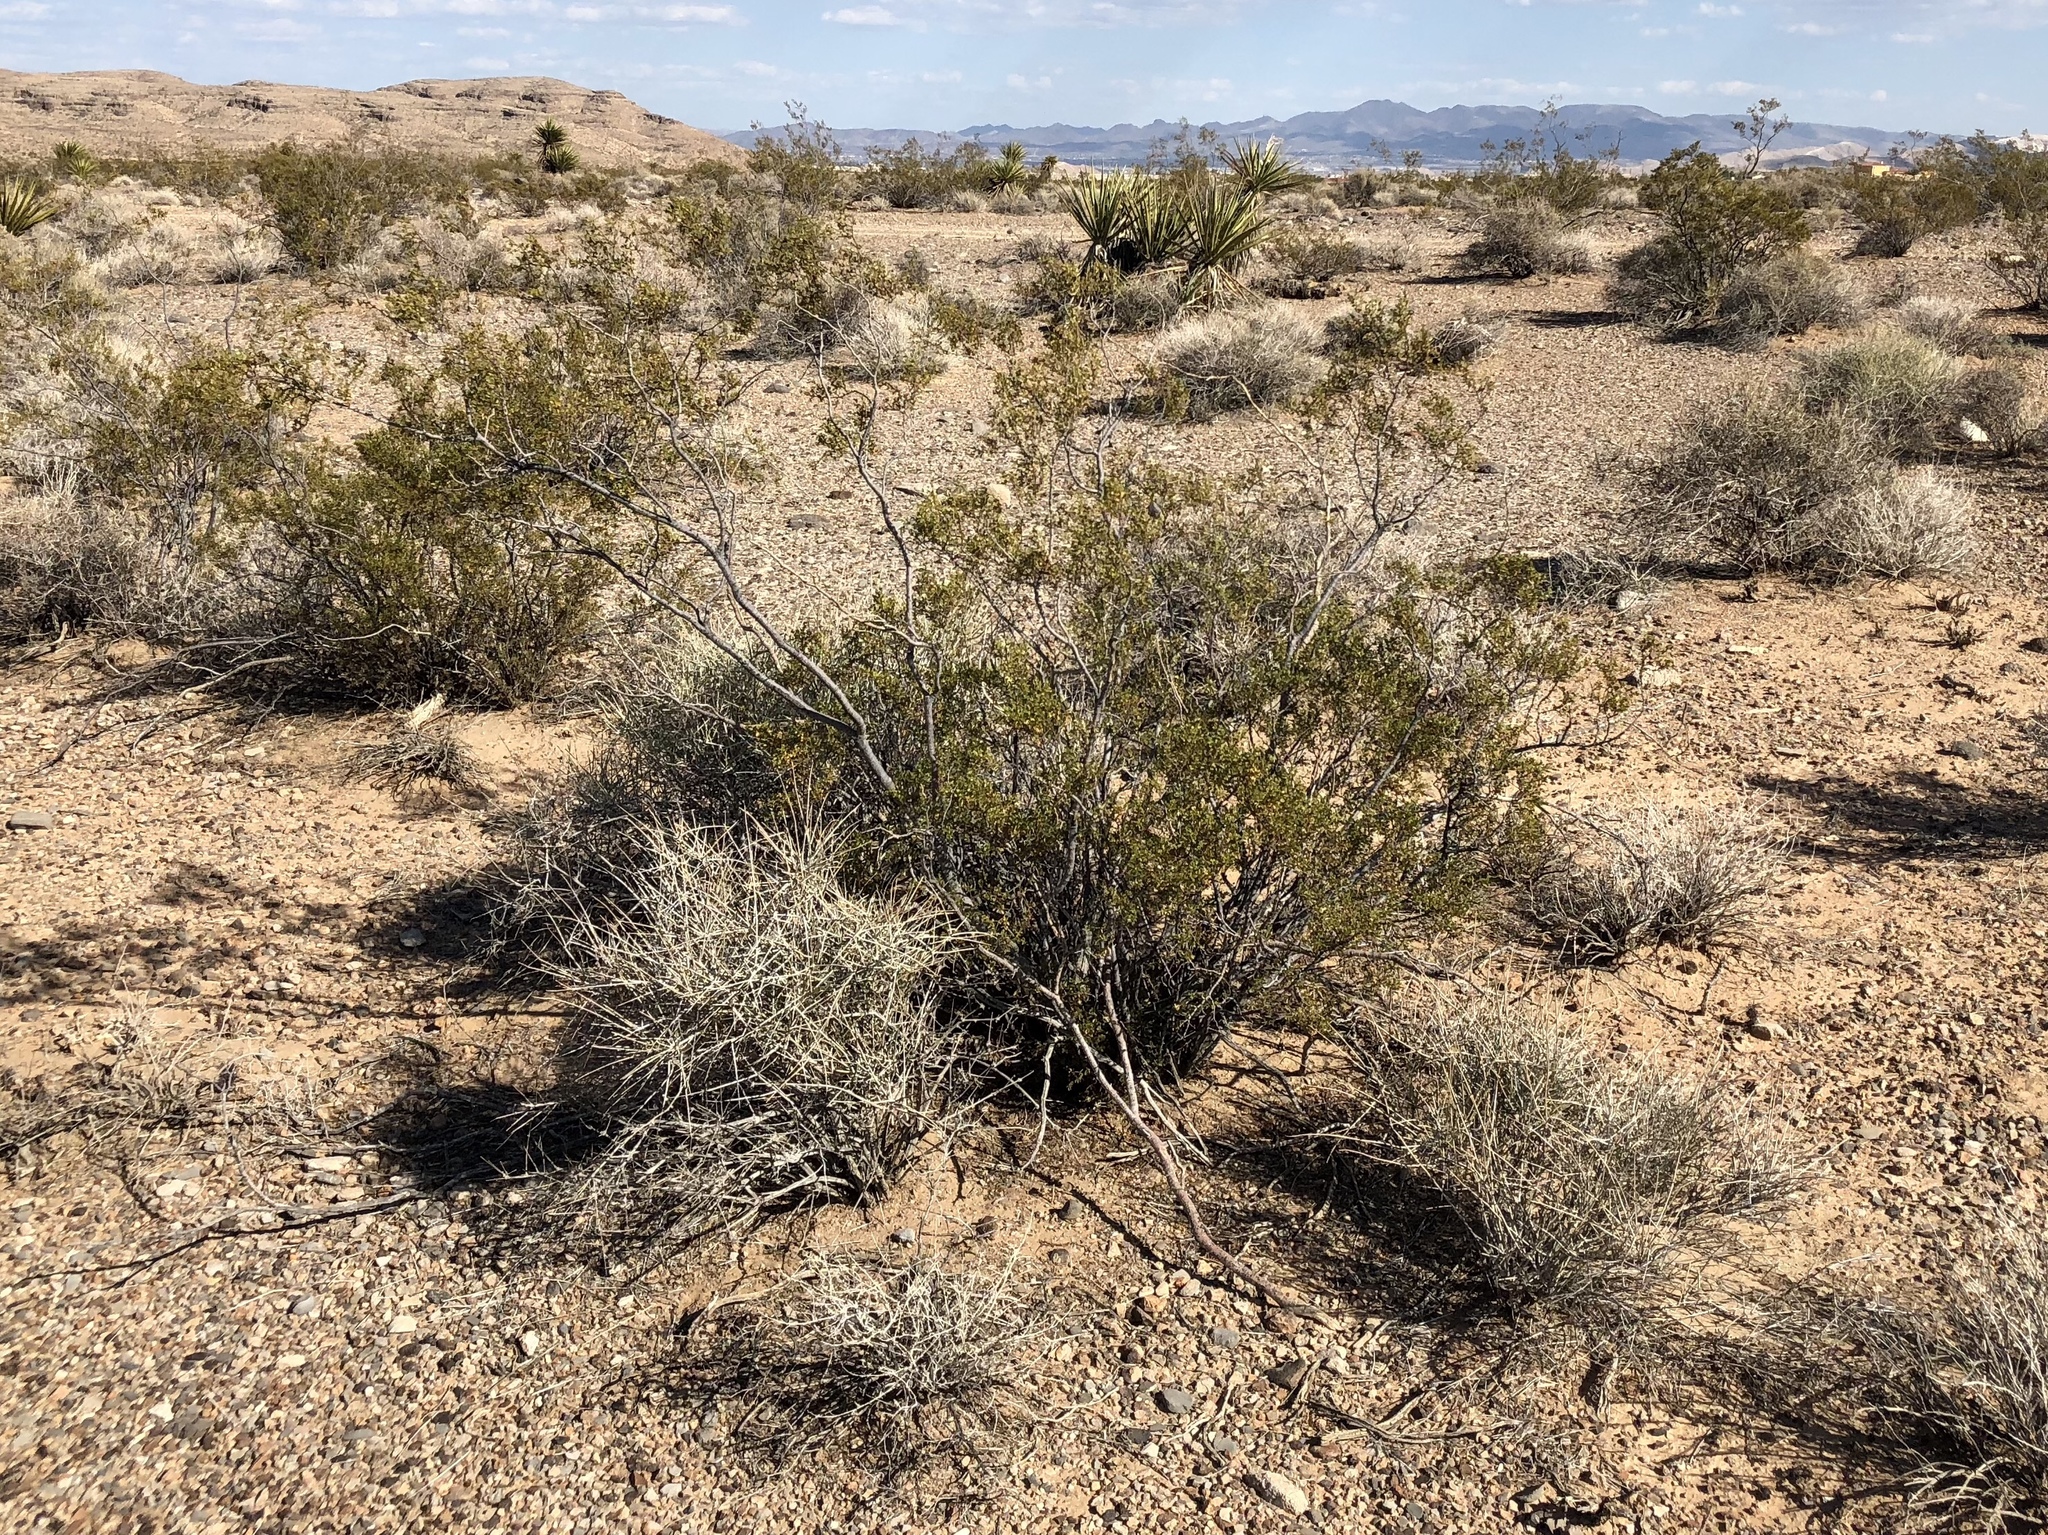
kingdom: Plantae
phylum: Tracheophyta
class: Magnoliopsida
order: Zygophyllales
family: Zygophyllaceae
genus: Larrea
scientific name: Larrea tridentata
